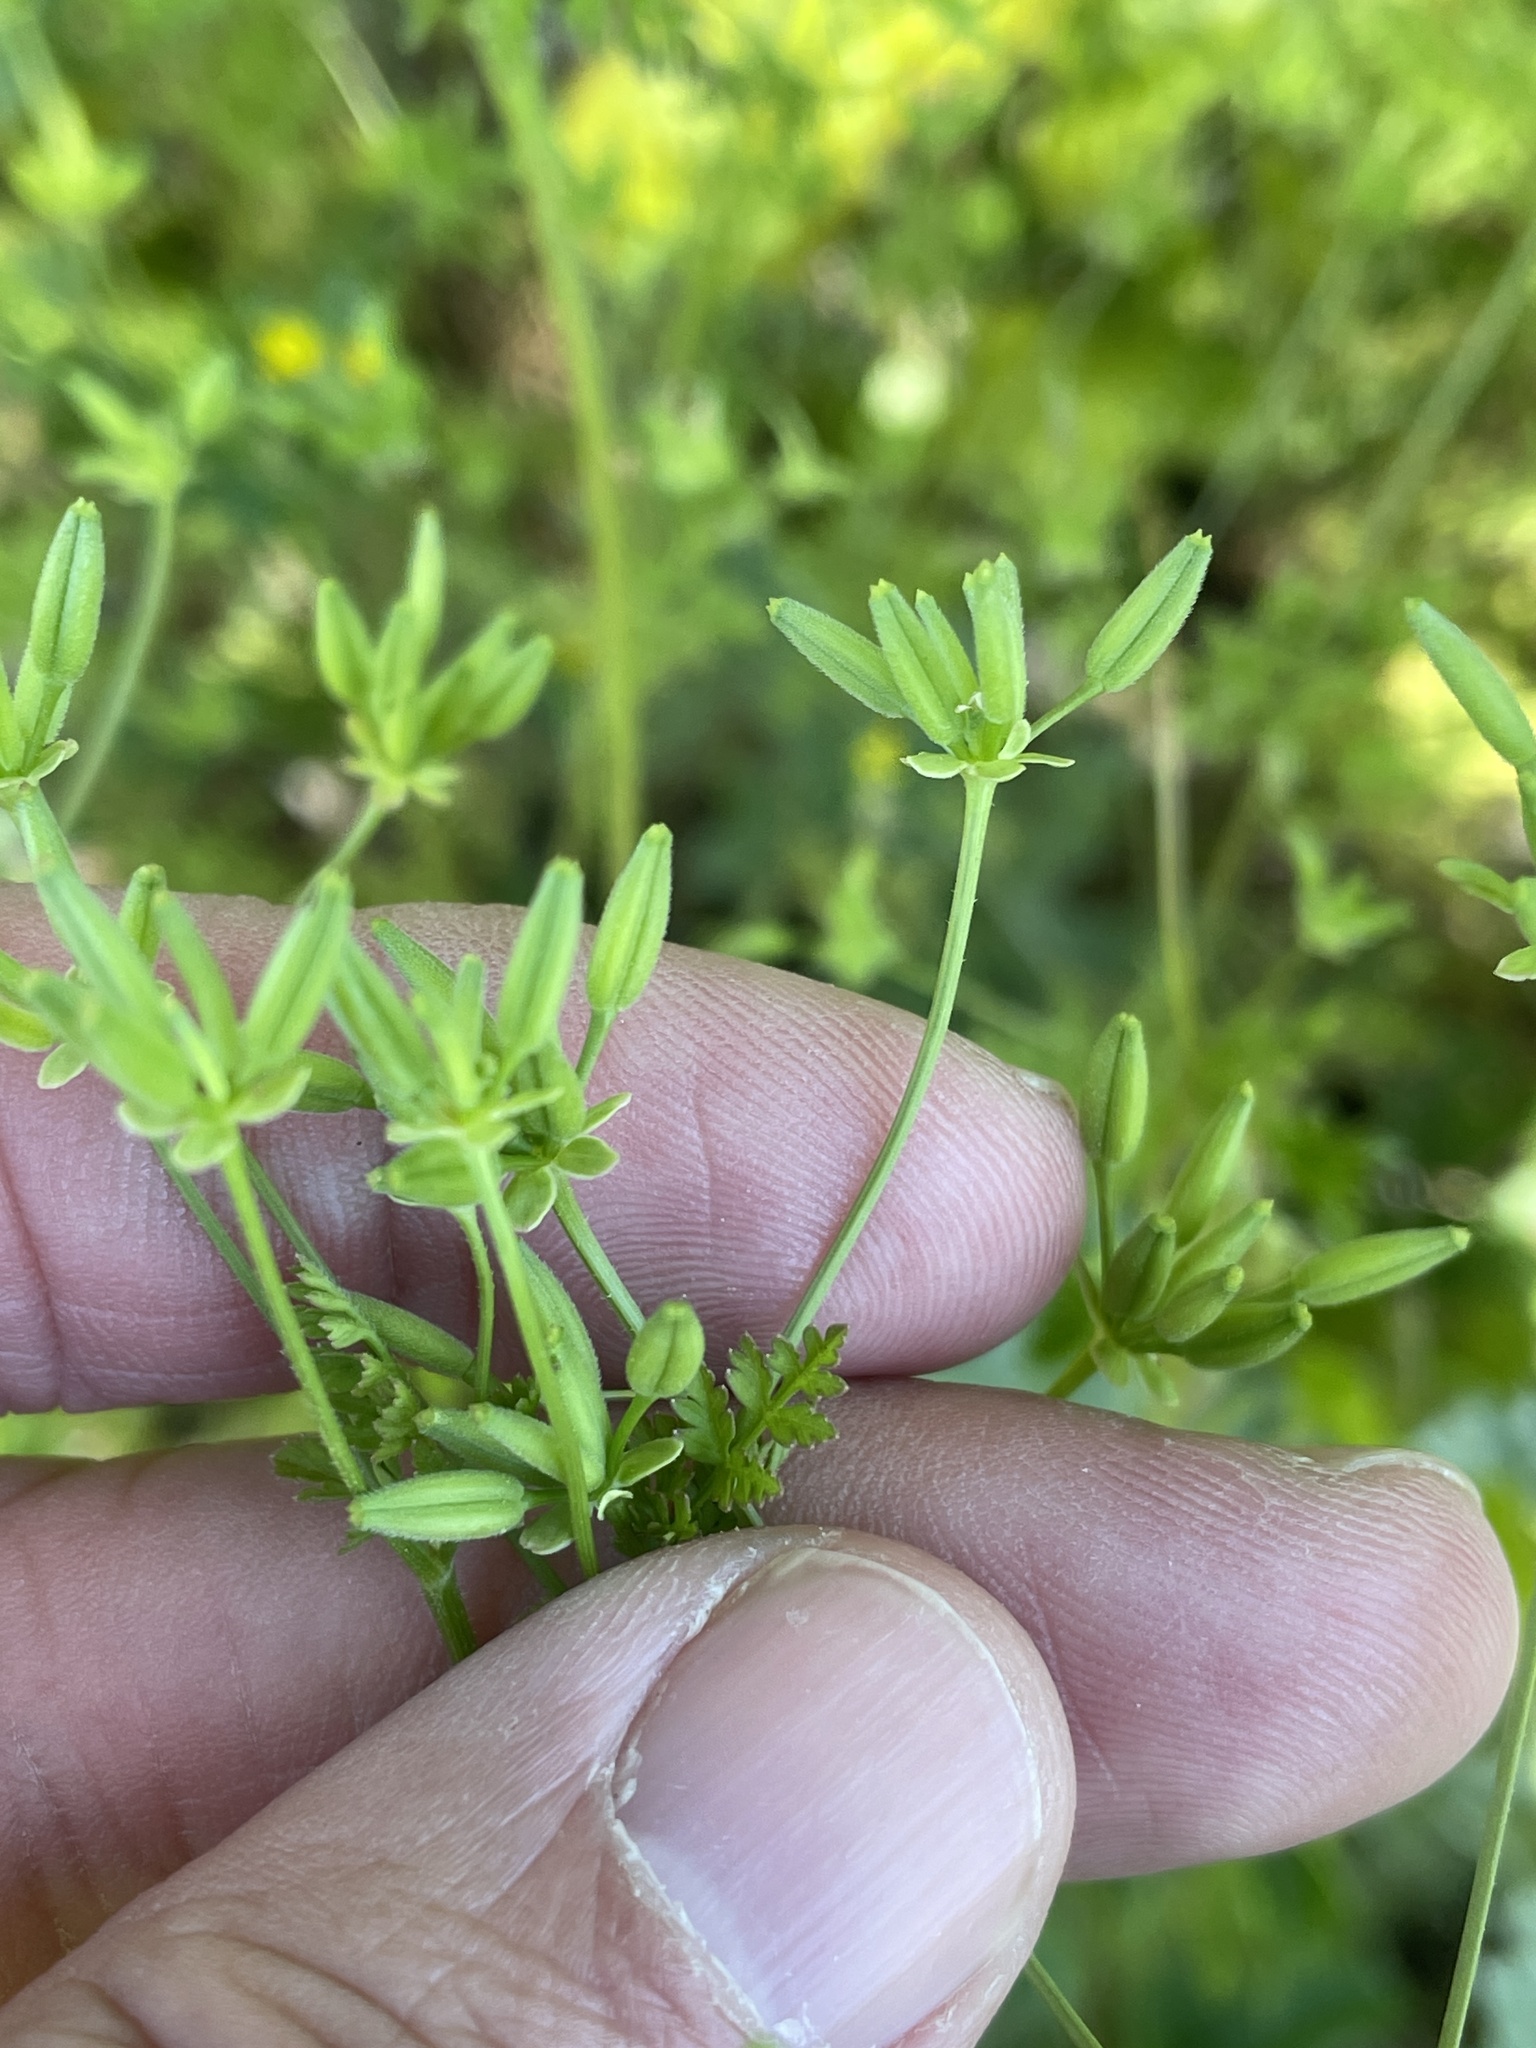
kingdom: Plantae
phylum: Tracheophyta
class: Magnoliopsida
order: Apiales
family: Apiaceae
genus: Chaerophyllum
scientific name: Chaerophyllum tainturieri
